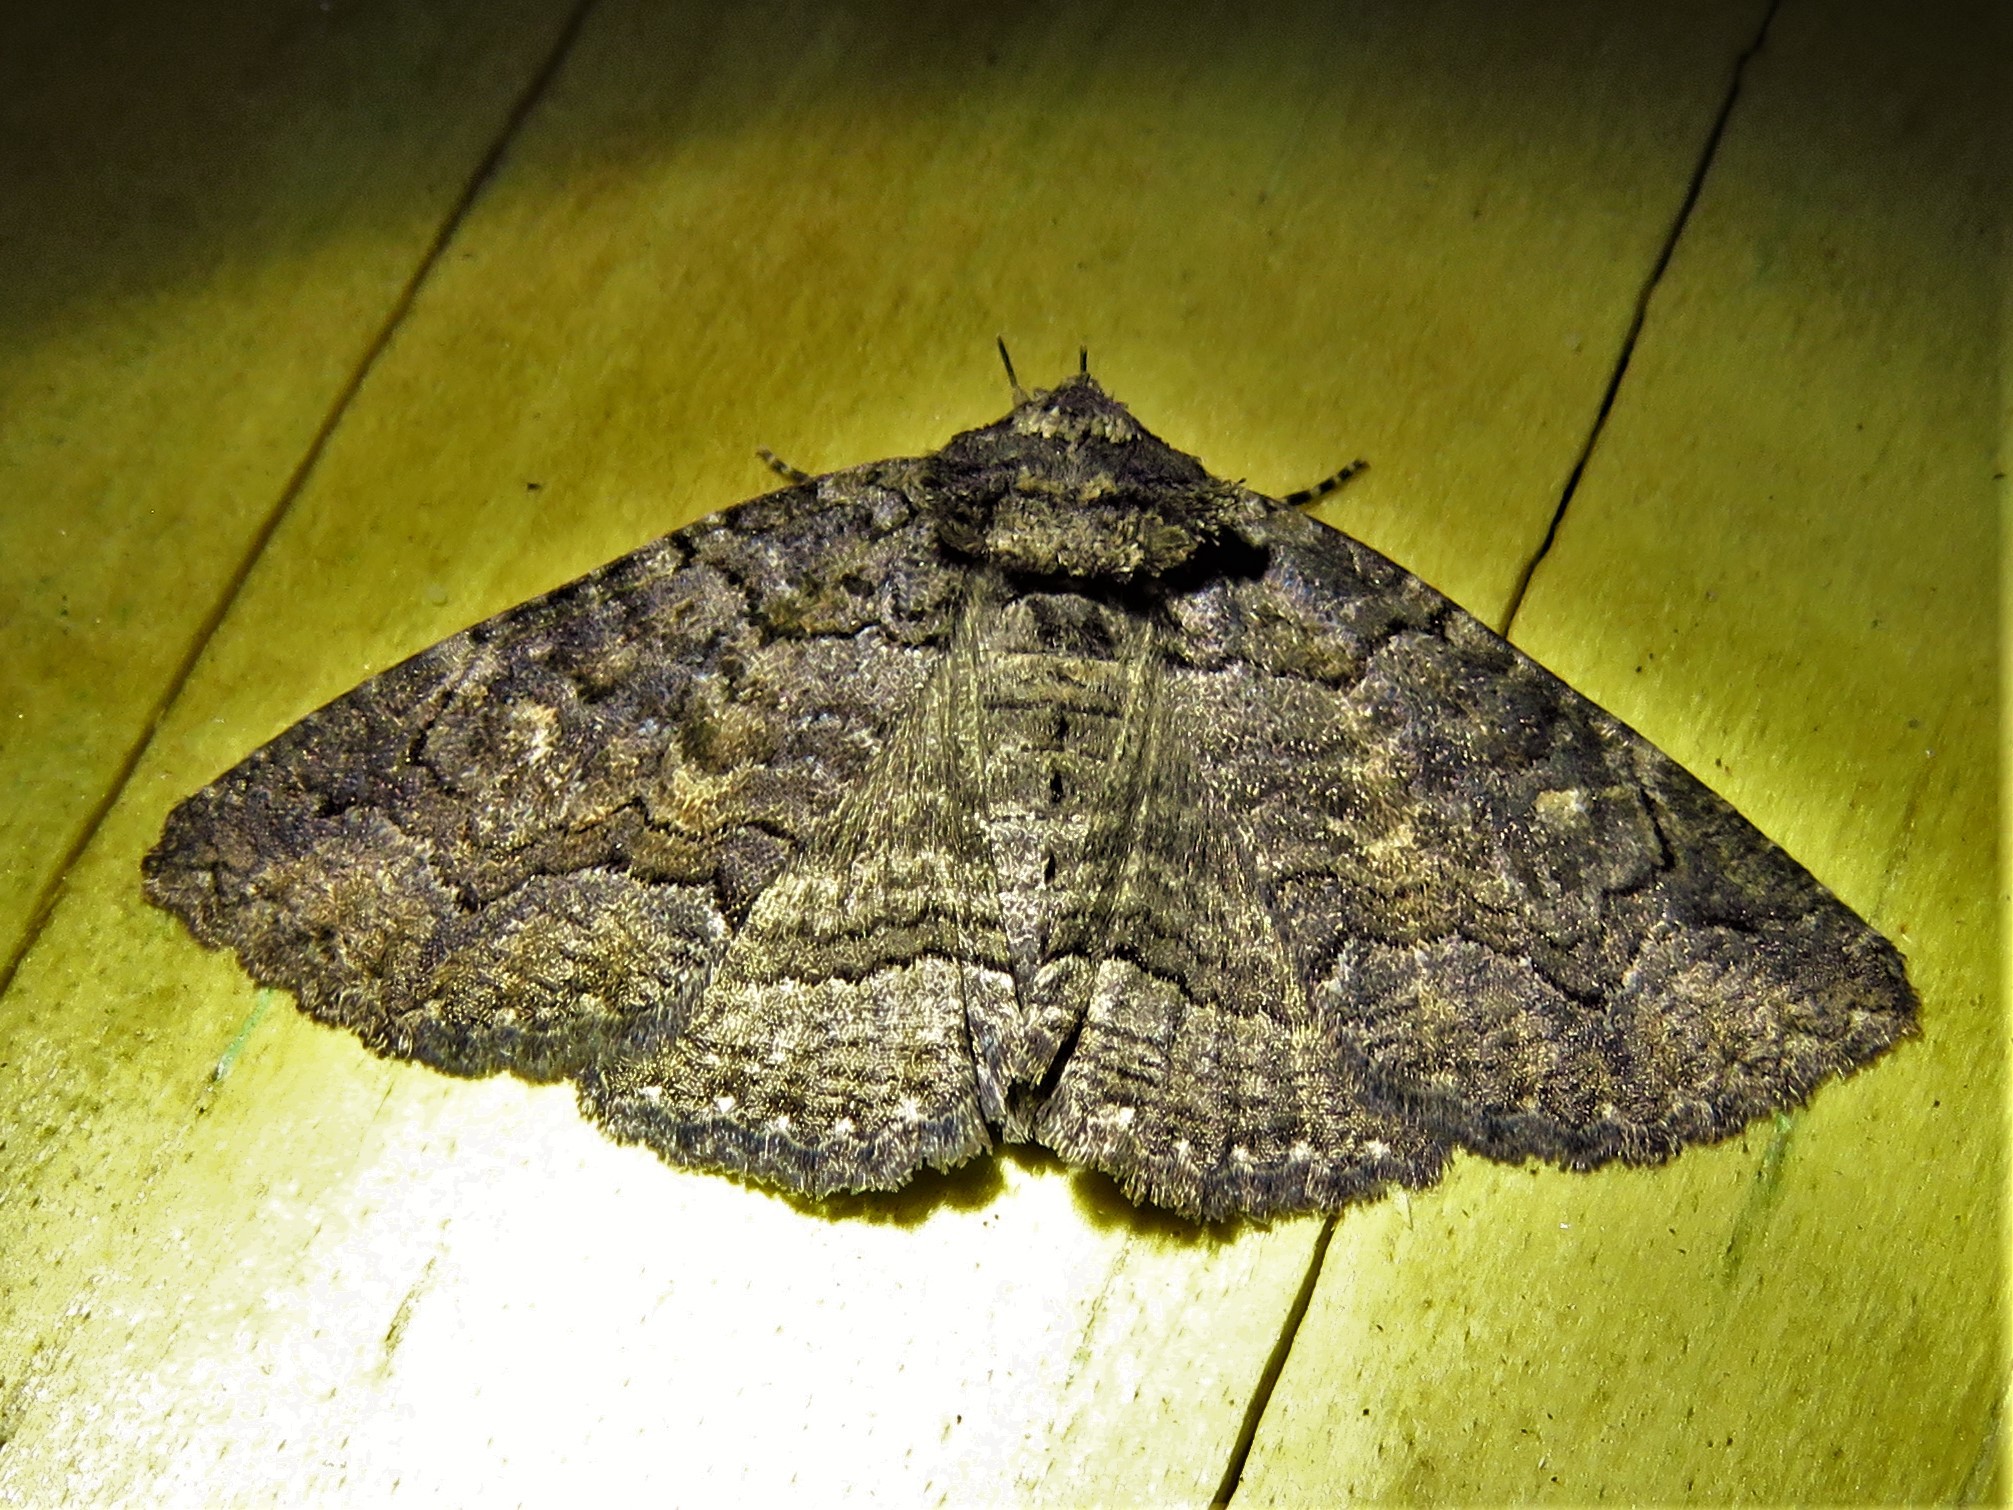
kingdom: Animalia
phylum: Arthropoda
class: Insecta
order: Lepidoptera
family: Erebidae
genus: Zale
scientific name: Zale edusina
